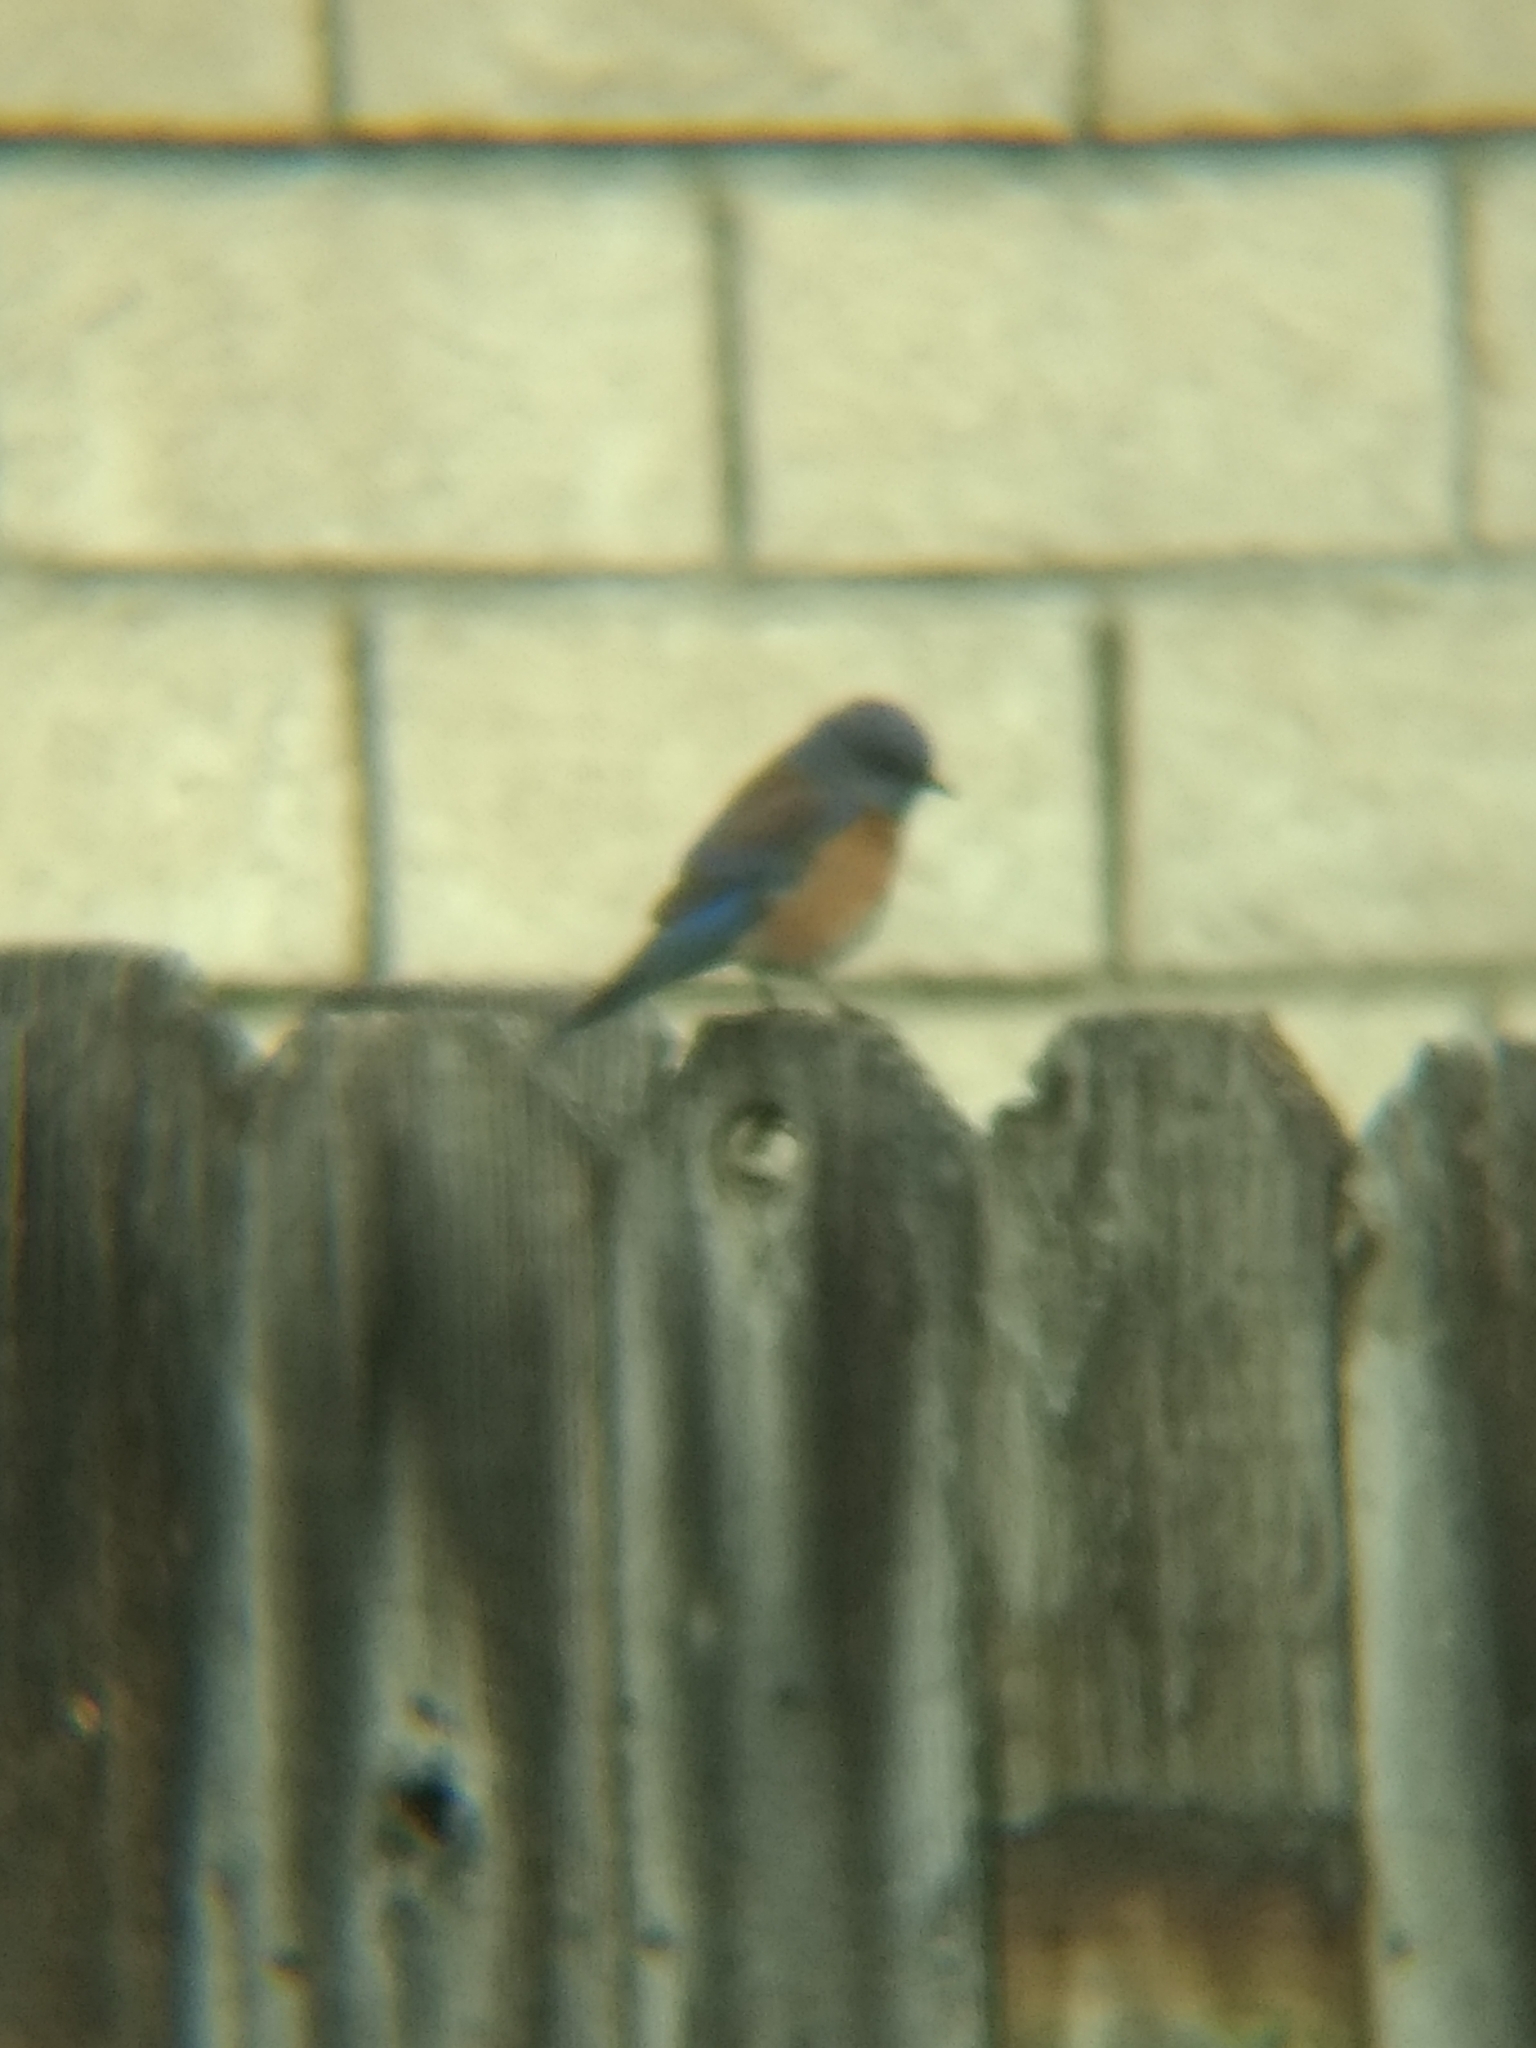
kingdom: Animalia
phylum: Chordata
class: Aves
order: Passeriformes
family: Turdidae
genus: Sialia
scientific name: Sialia mexicana
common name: Western bluebird
